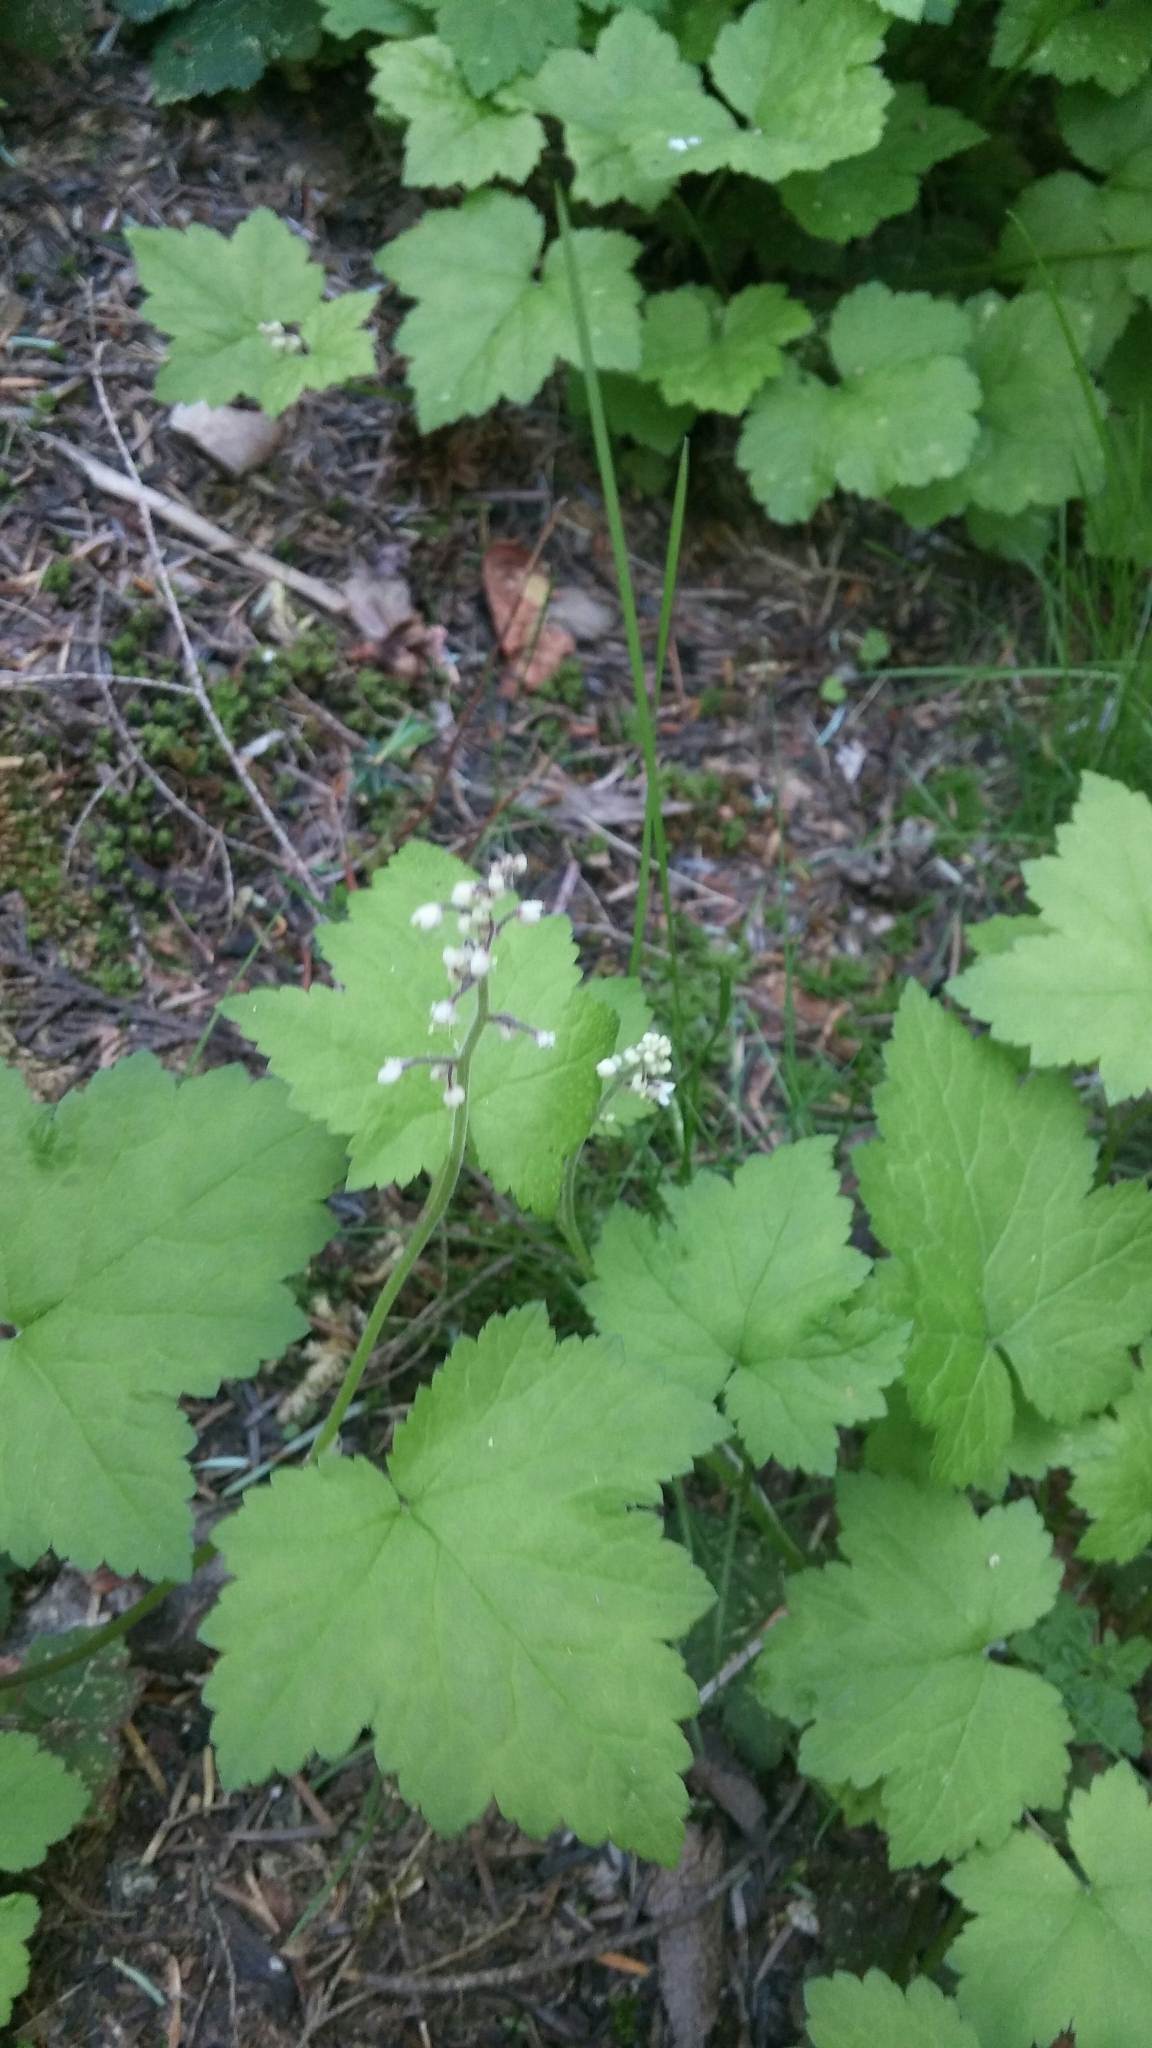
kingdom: Plantae
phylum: Tracheophyta
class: Magnoliopsida
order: Saxifragales
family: Saxifragaceae
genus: Tiarella
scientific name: Tiarella trifoliata
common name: Sugar-scoop
